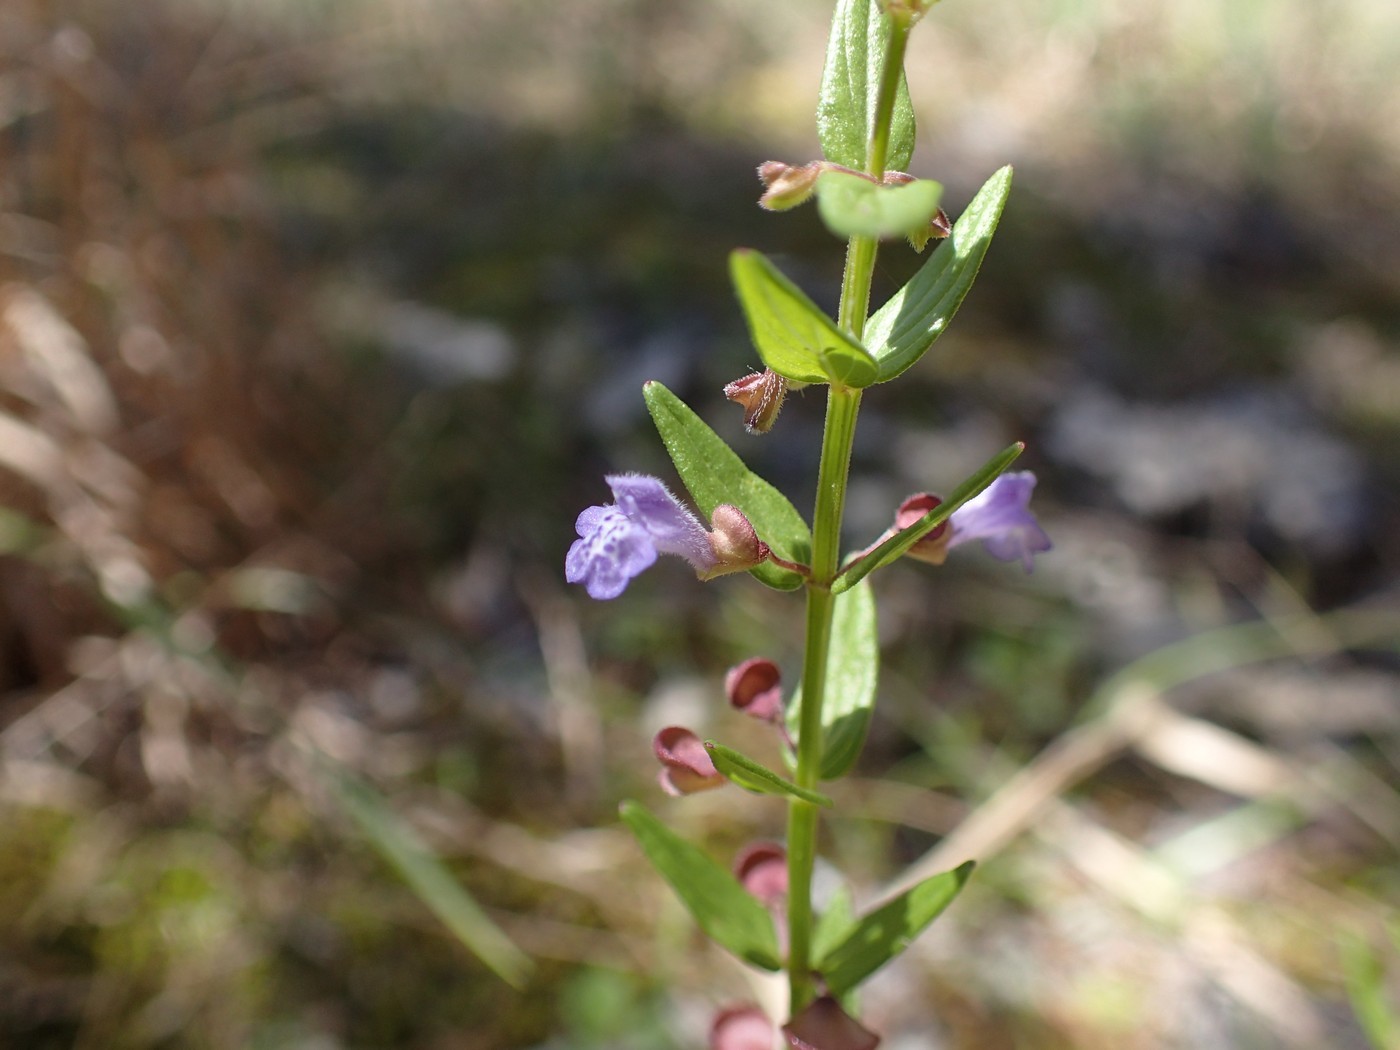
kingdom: Plantae
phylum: Tracheophyta
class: Magnoliopsida
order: Lamiales
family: Lamiaceae
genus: Scutellaria
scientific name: Scutellaria parvula
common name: Little scullcap
